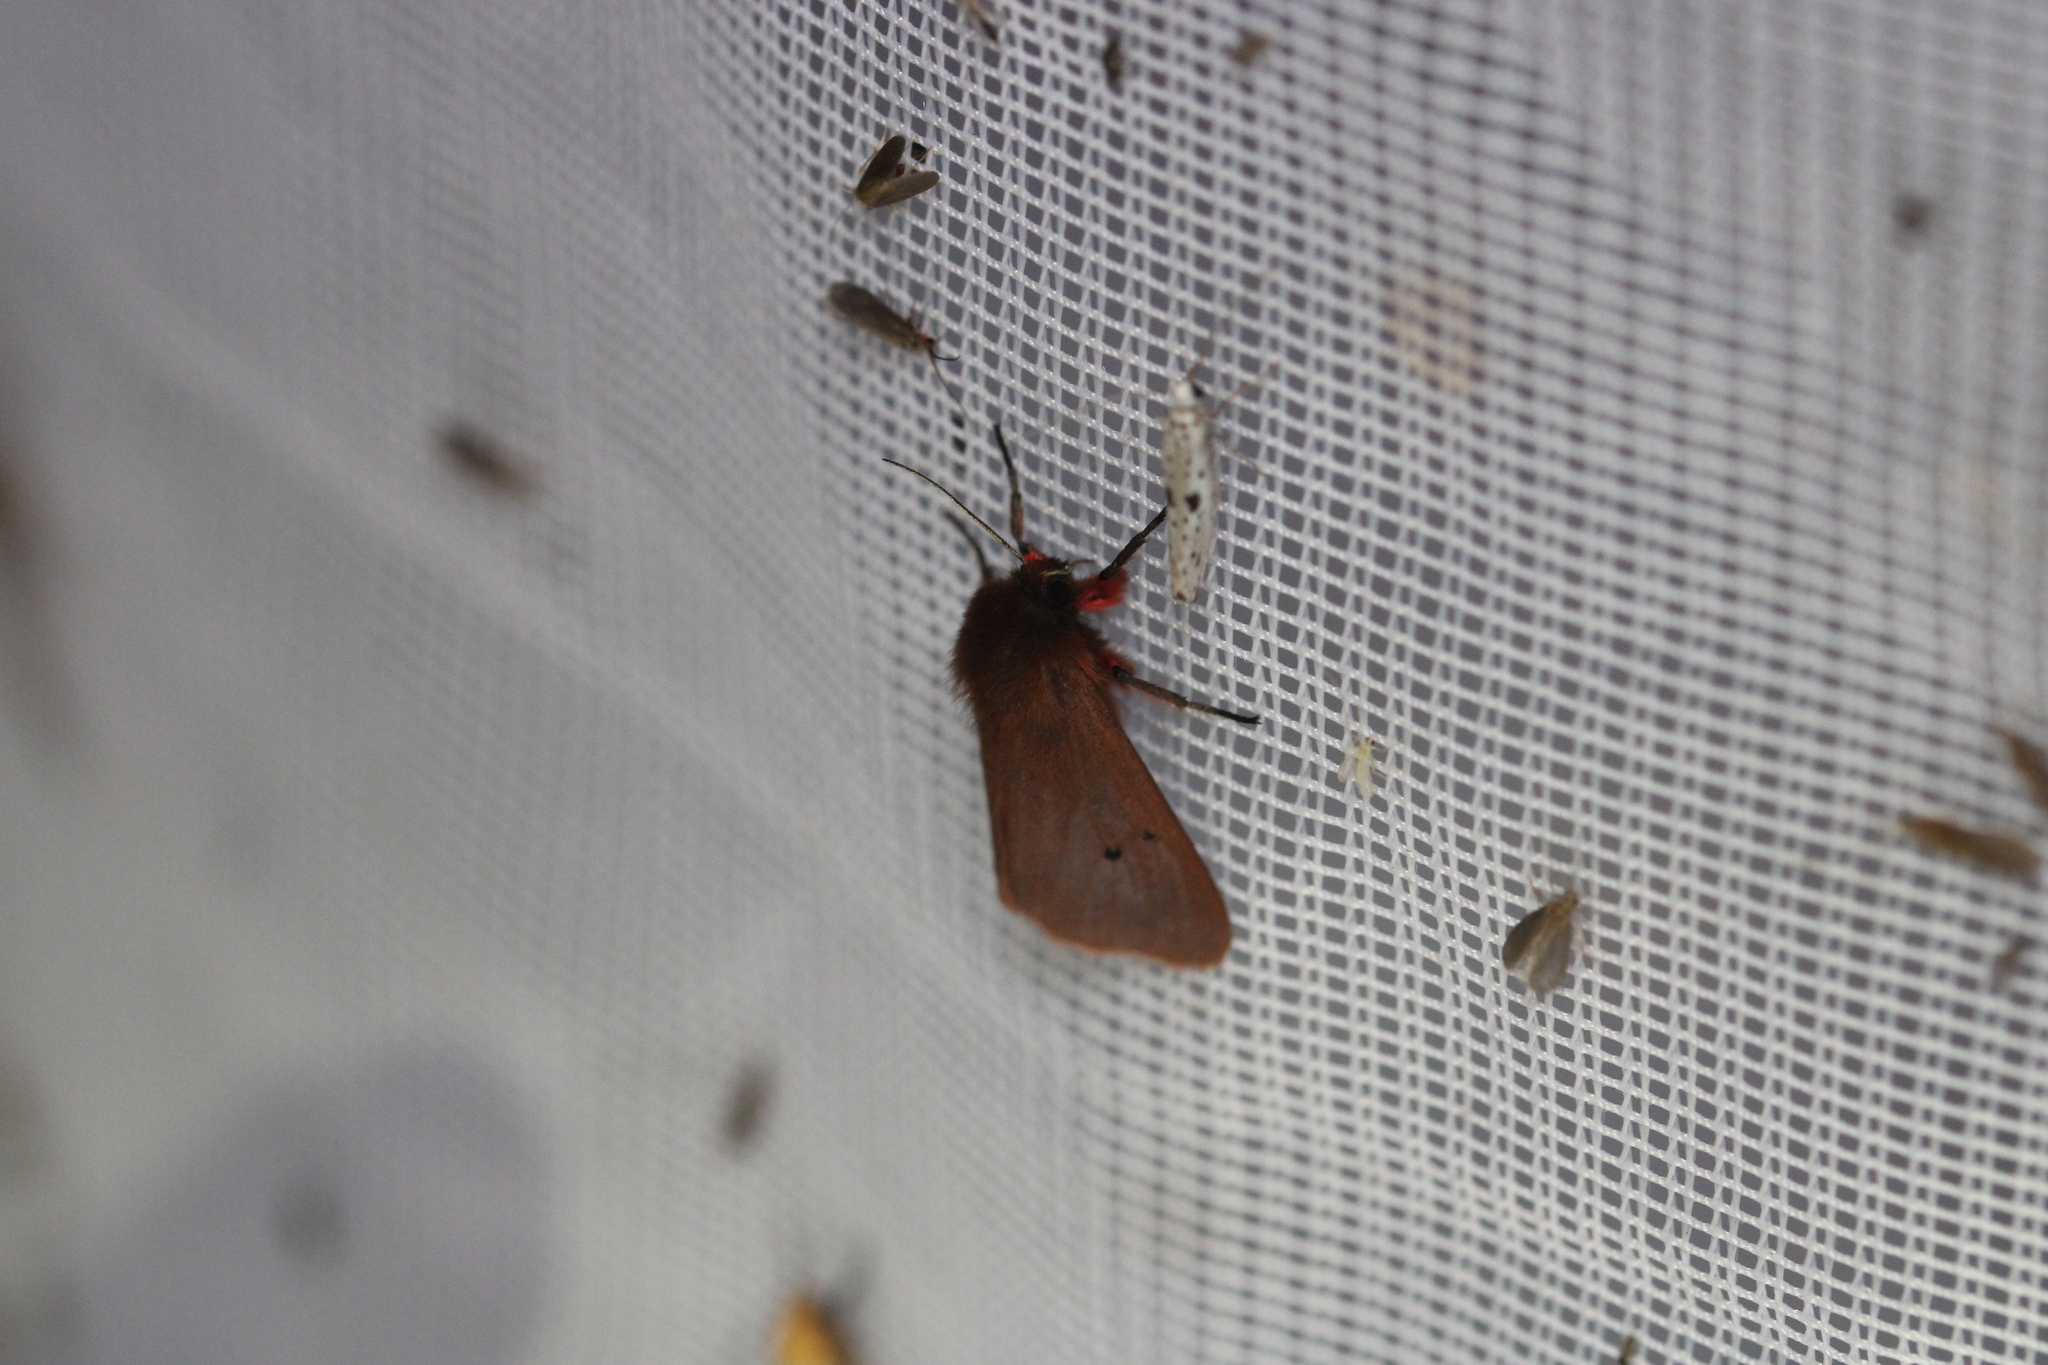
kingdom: Animalia
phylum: Arthropoda
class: Insecta
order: Lepidoptera
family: Erebidae
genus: Phragmatobia
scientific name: Phragmatobia fuliginosa
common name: Ruby tiger
